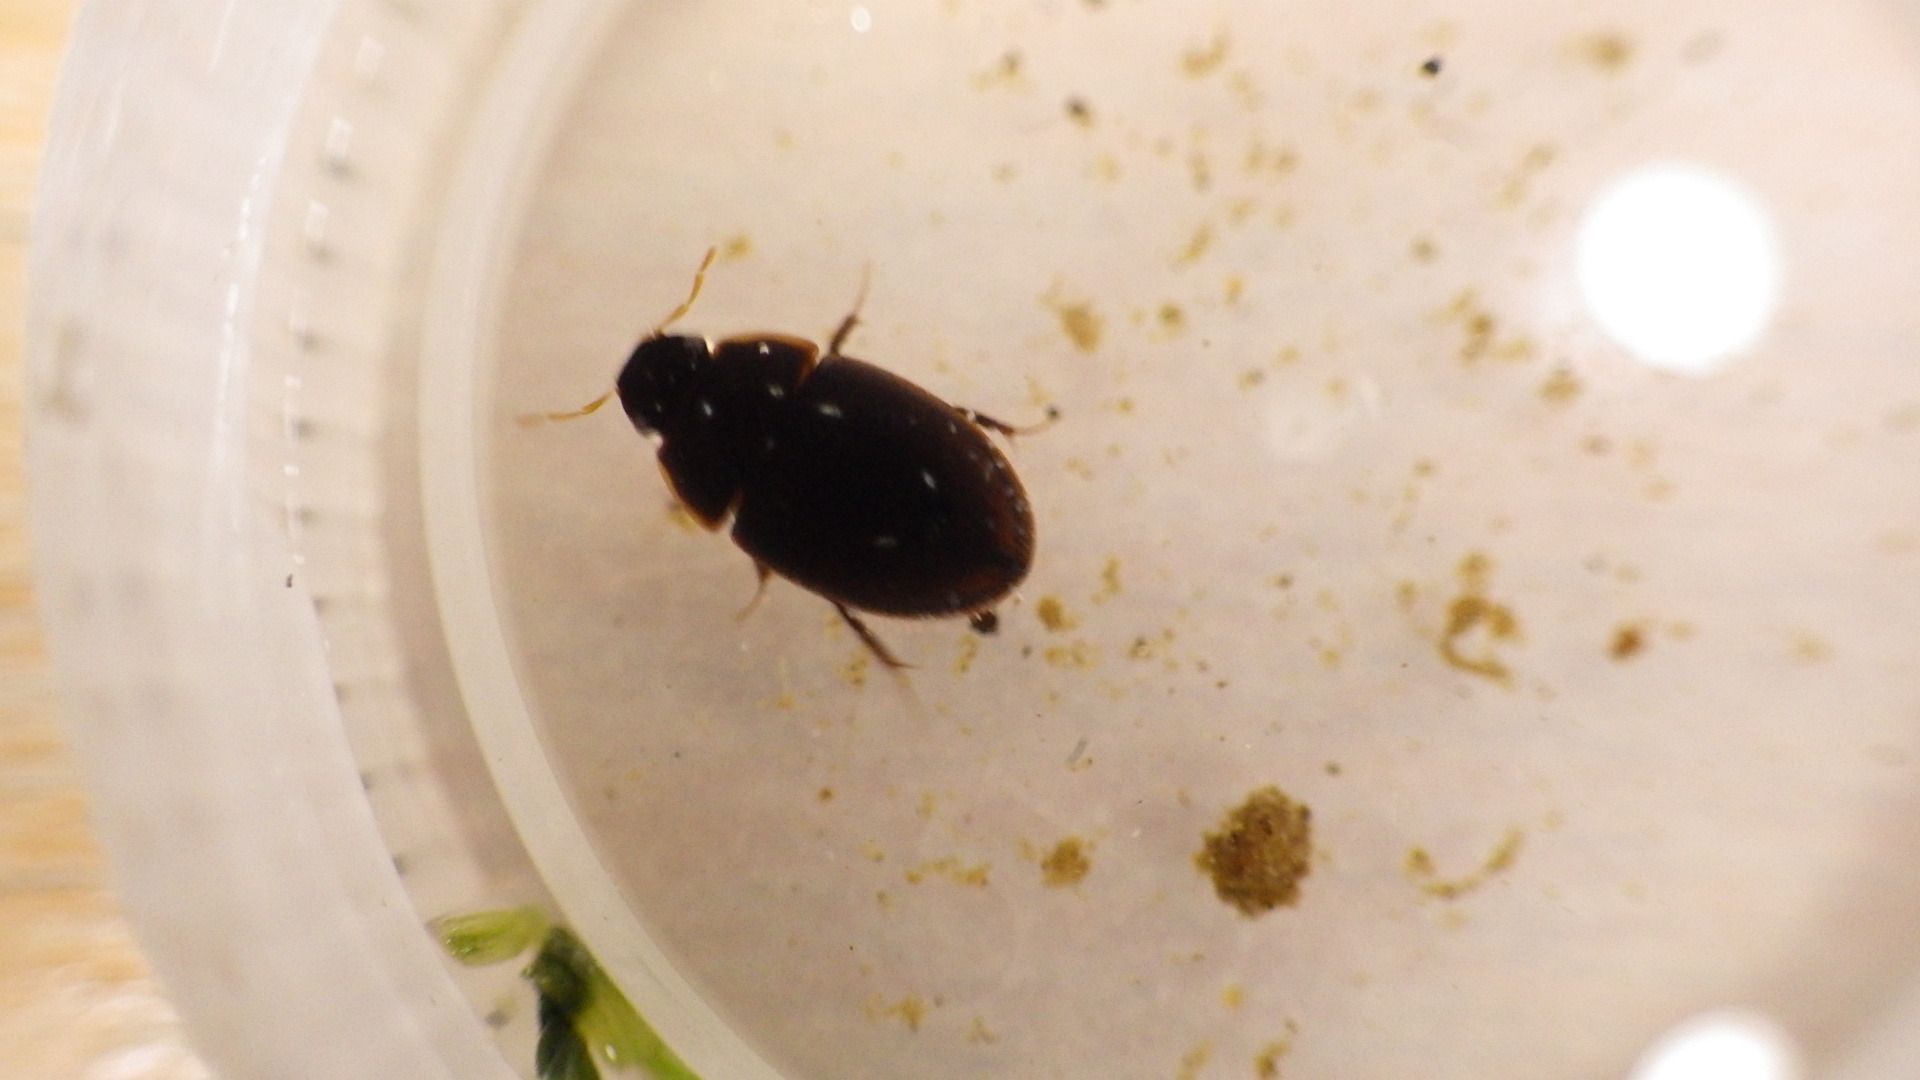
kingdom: Animalia
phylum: Arthropoda
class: Insecta
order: Coleoptera
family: Hydrophilidae
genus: Cymbiodyta
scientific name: Cymbiodyta
